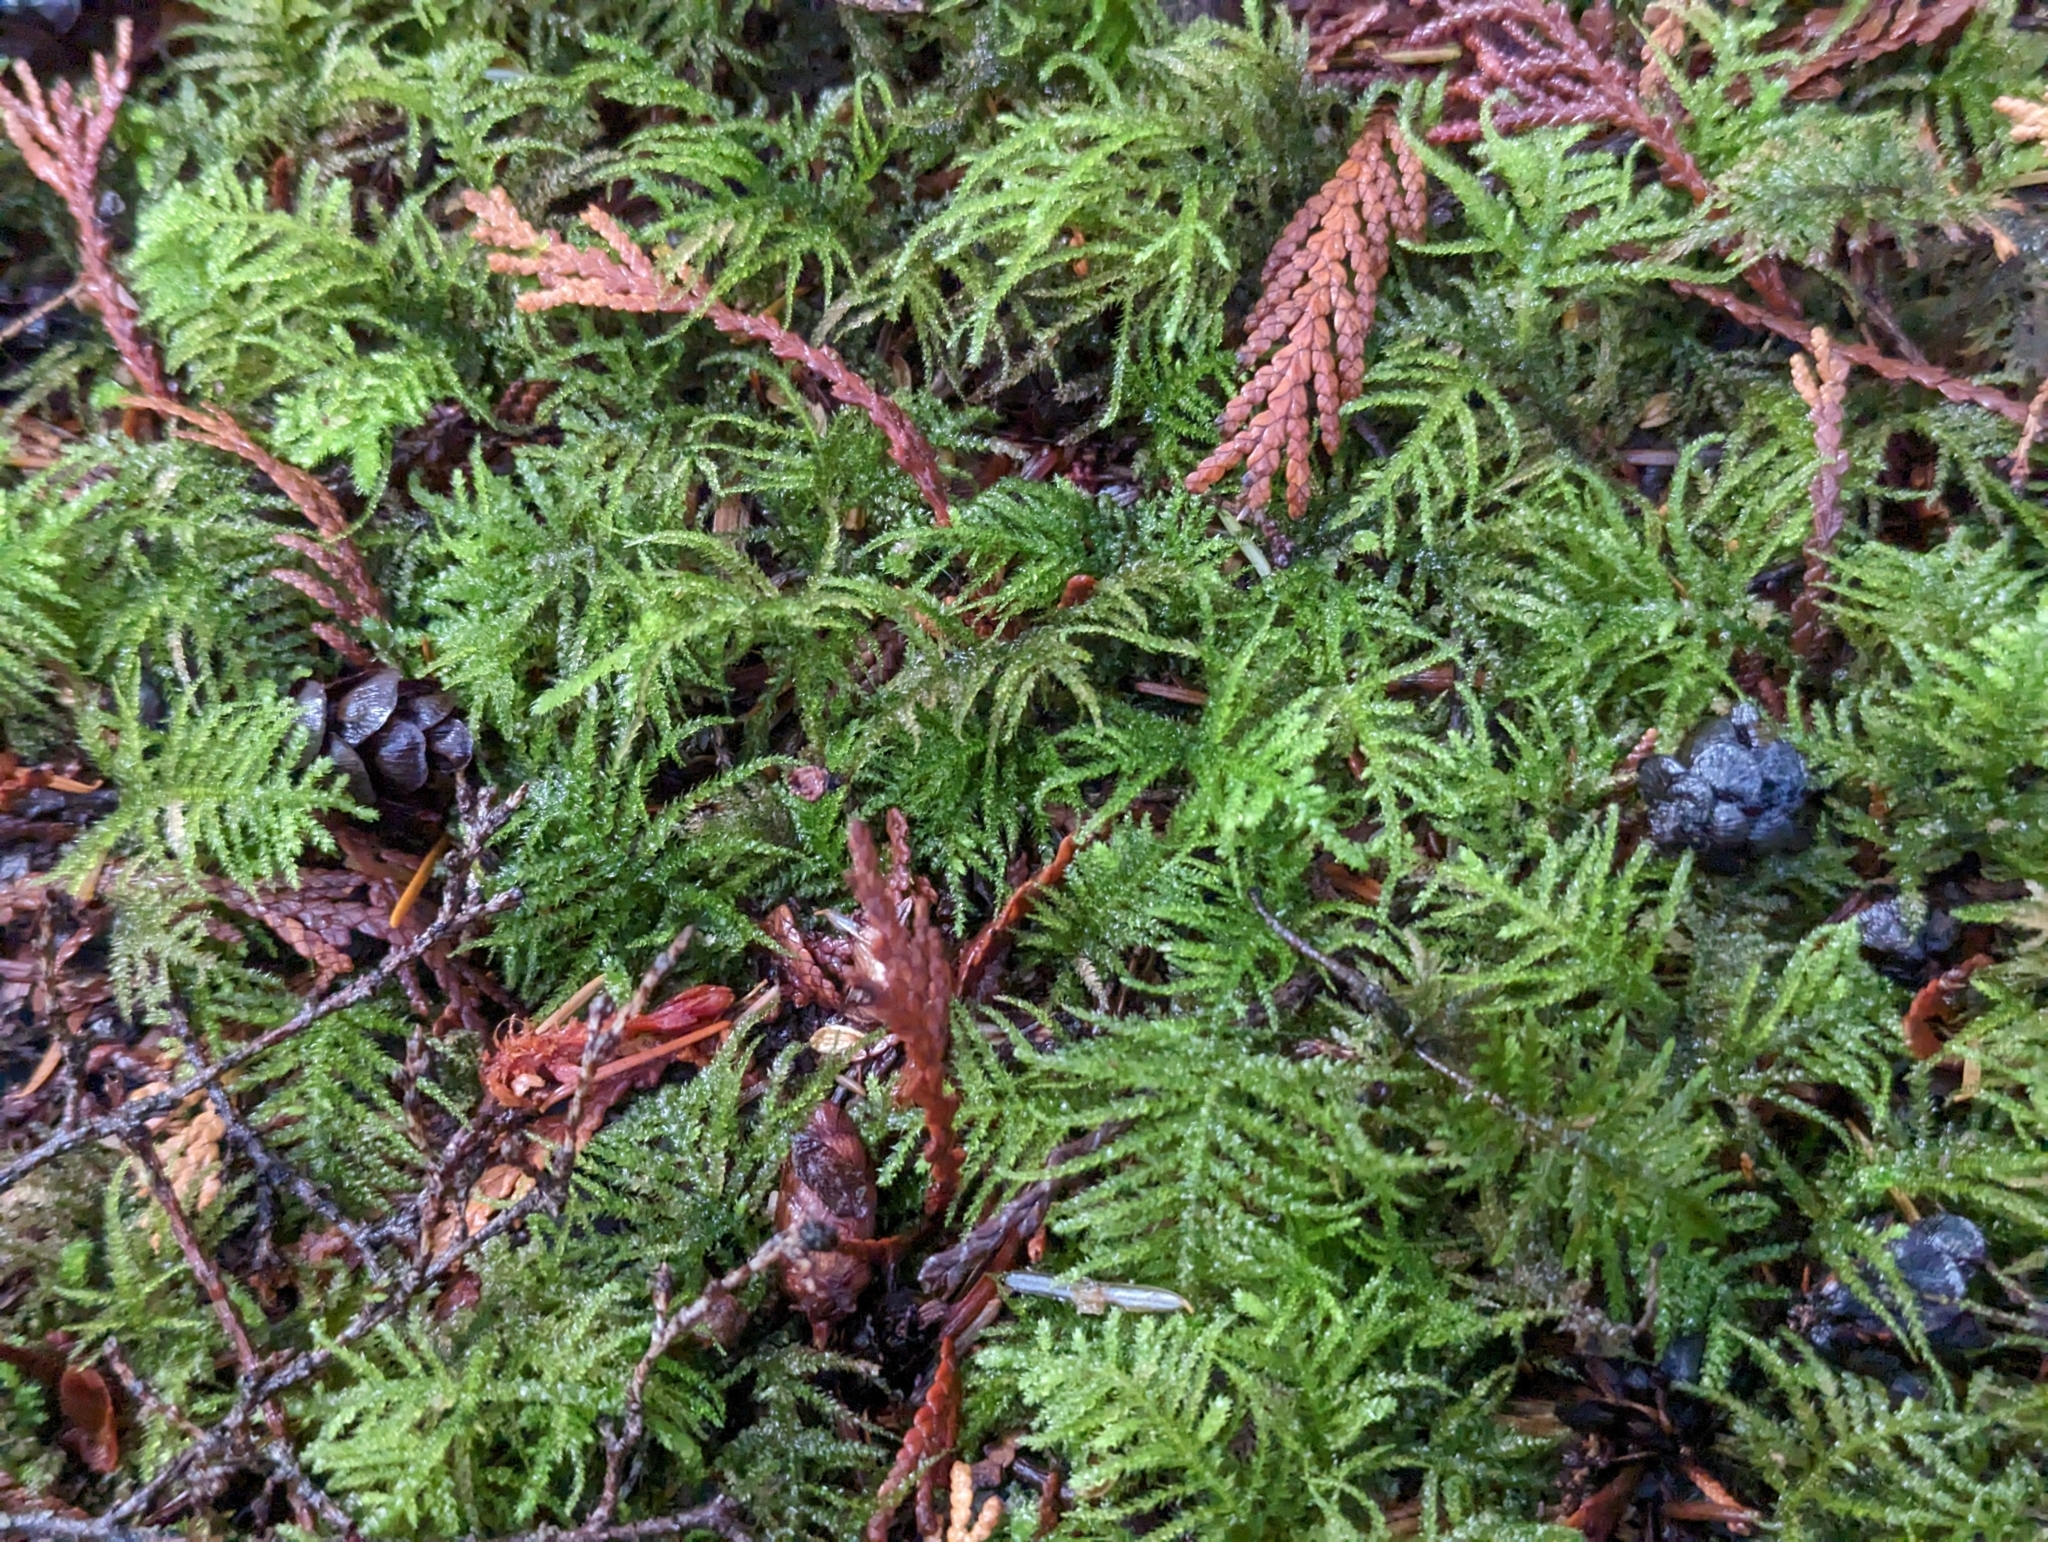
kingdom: Plantae
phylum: Bryophyta
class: Bryopsida
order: Hypnales
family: Brachytheciaceae
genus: Kindbergia
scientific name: Kindbergia oregana
